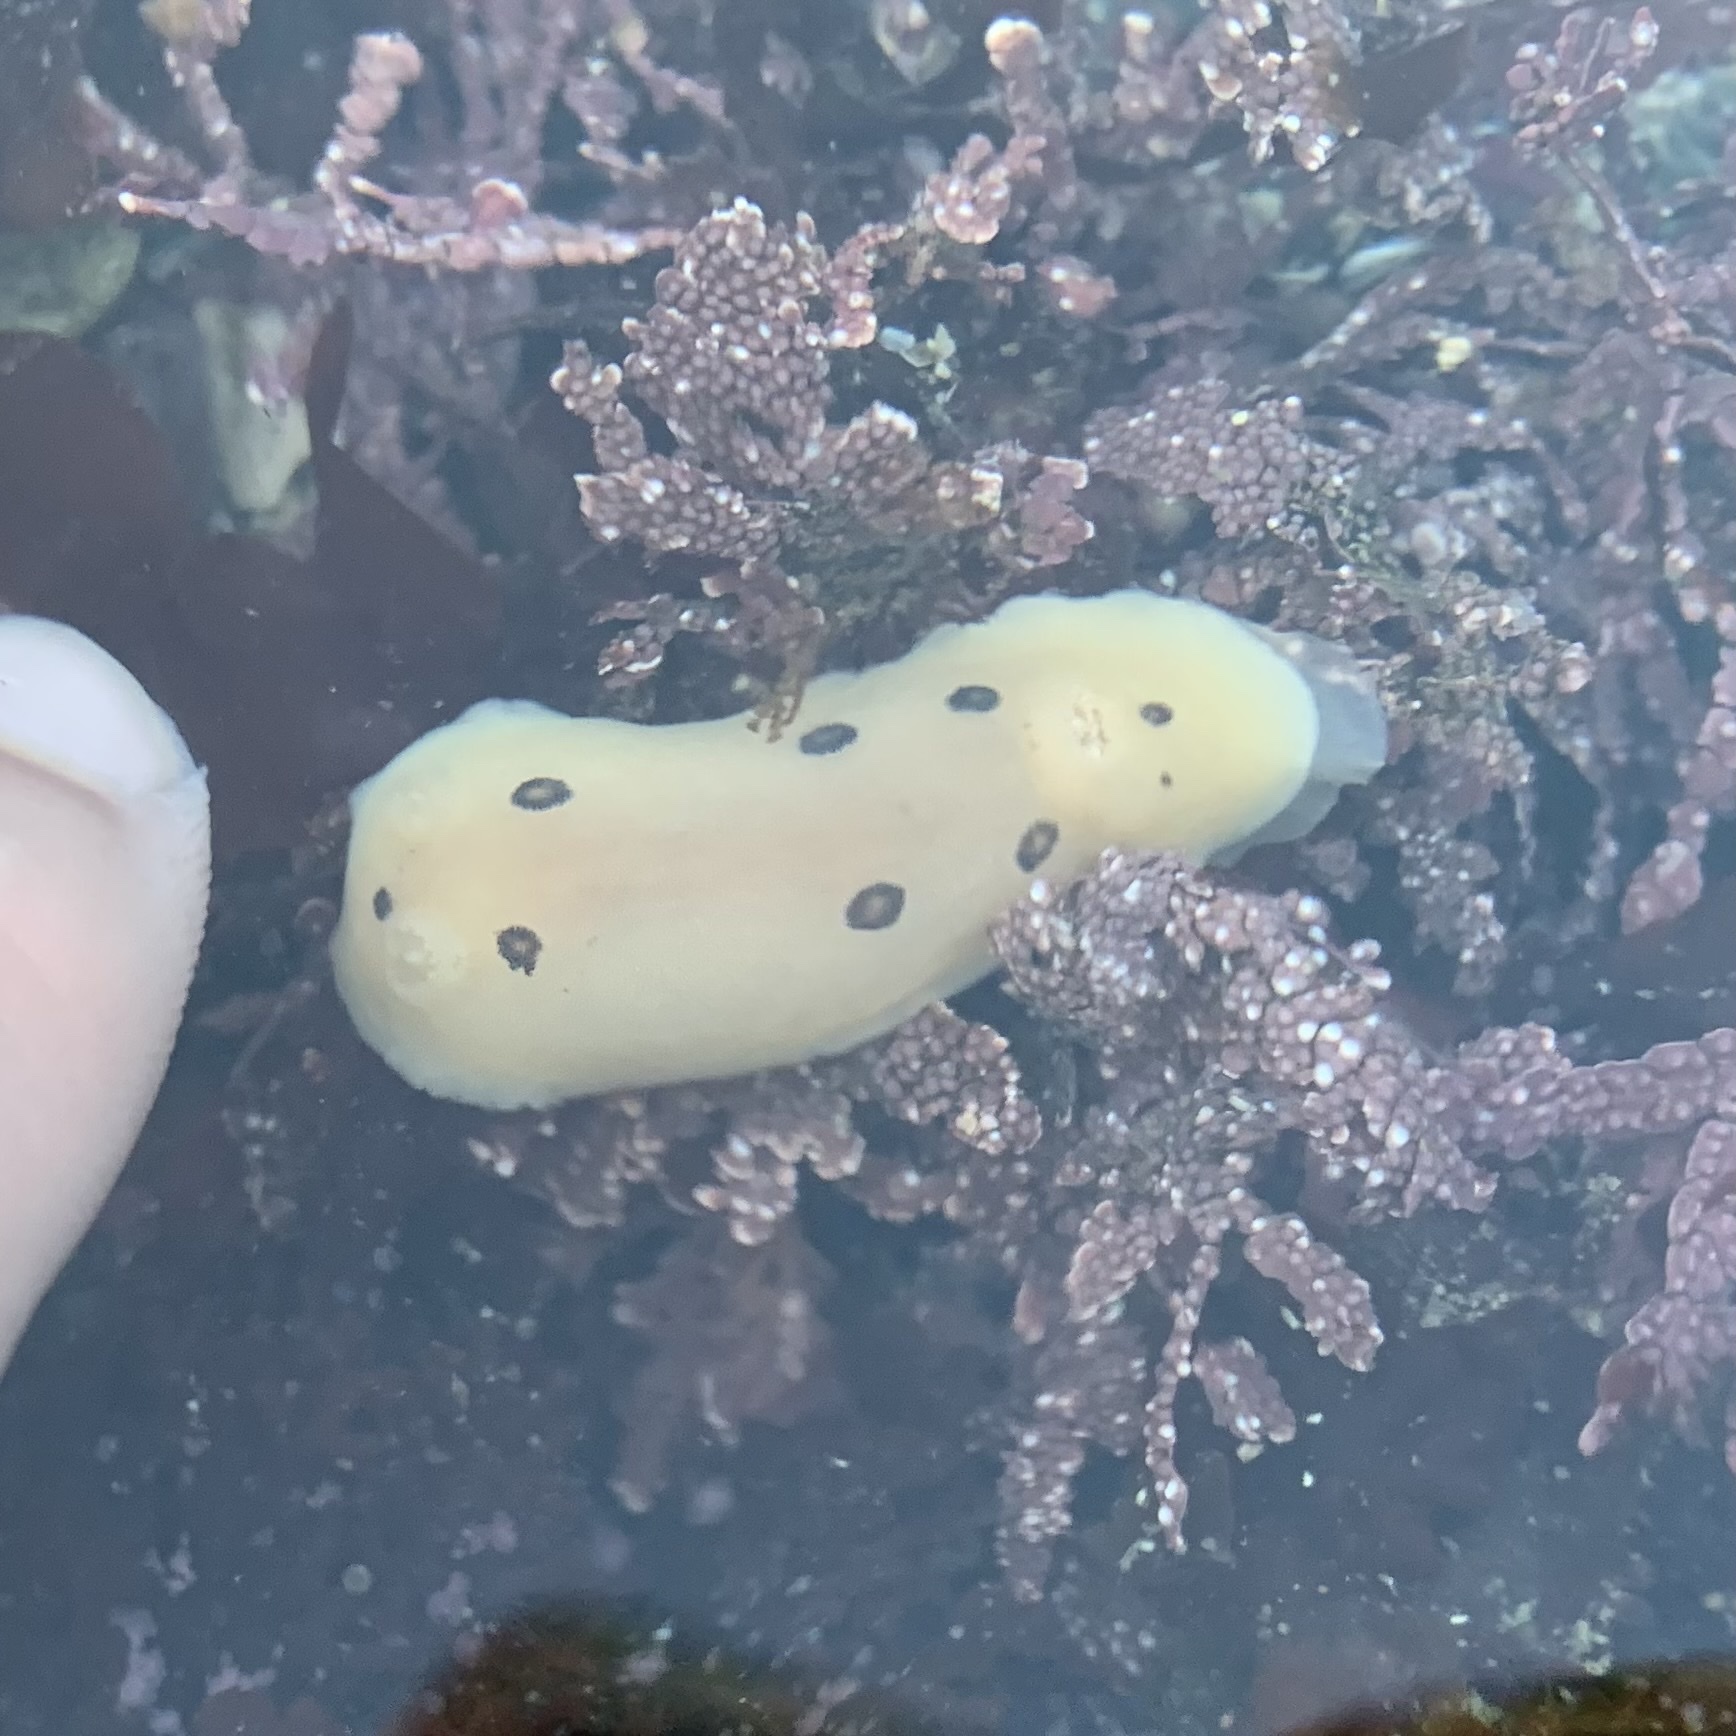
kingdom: Animalia
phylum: Mollusca
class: Gastropoda
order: Nudibranchia
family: Discodorididae
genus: Diaulula
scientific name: Diaulula sandiegensis
